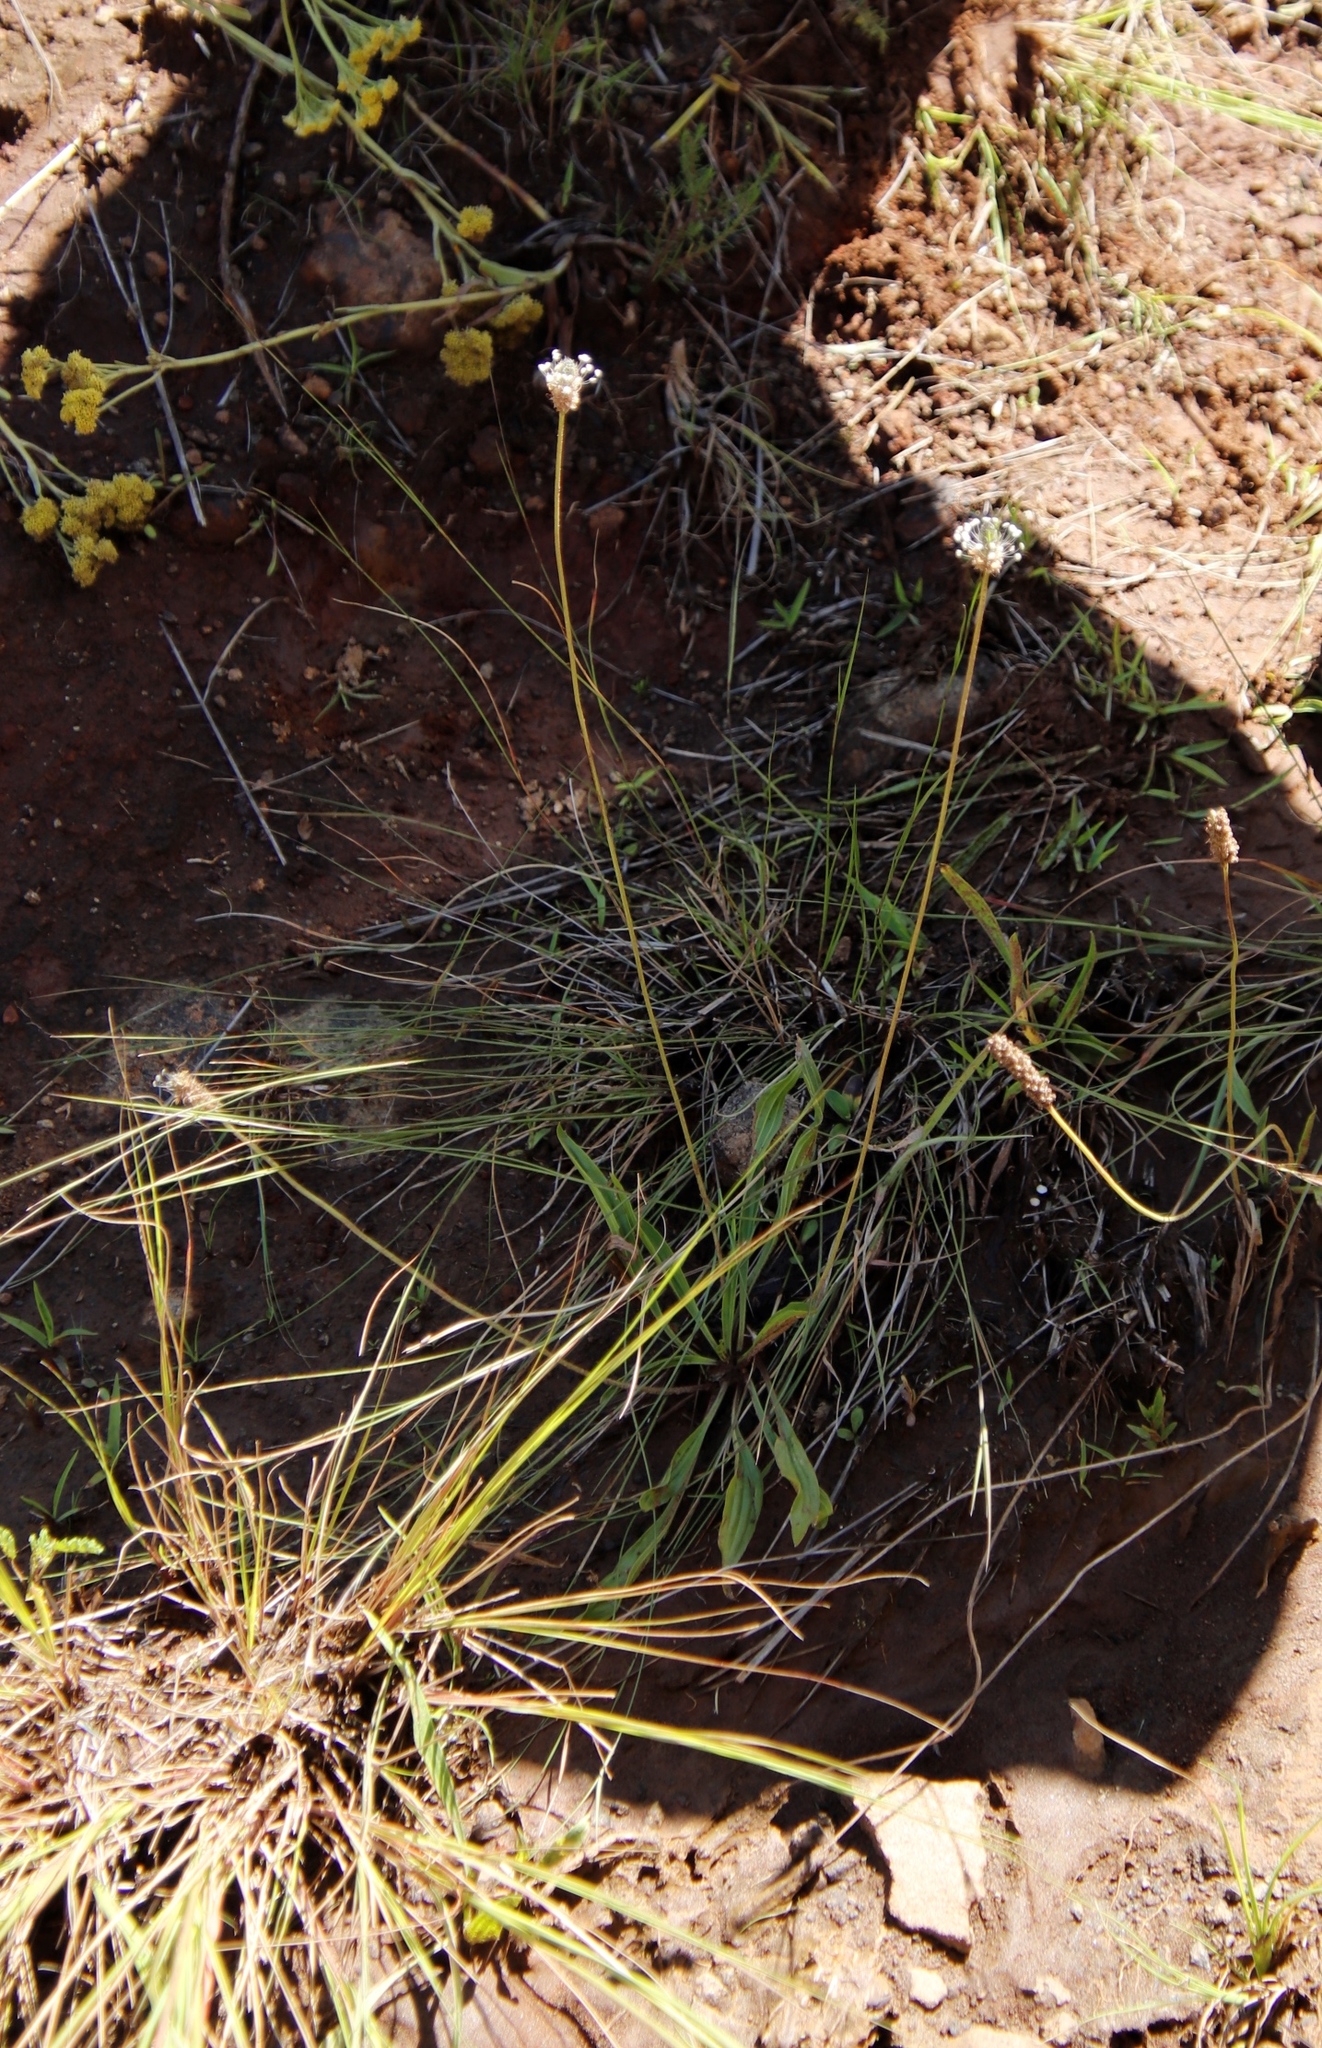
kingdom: Plantae
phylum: Tracheophyta
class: Magnoliopsida
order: Lamiales
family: Plantaginaceae
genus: Plantago
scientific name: Plantago lanceolata
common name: Ribwort plantain
